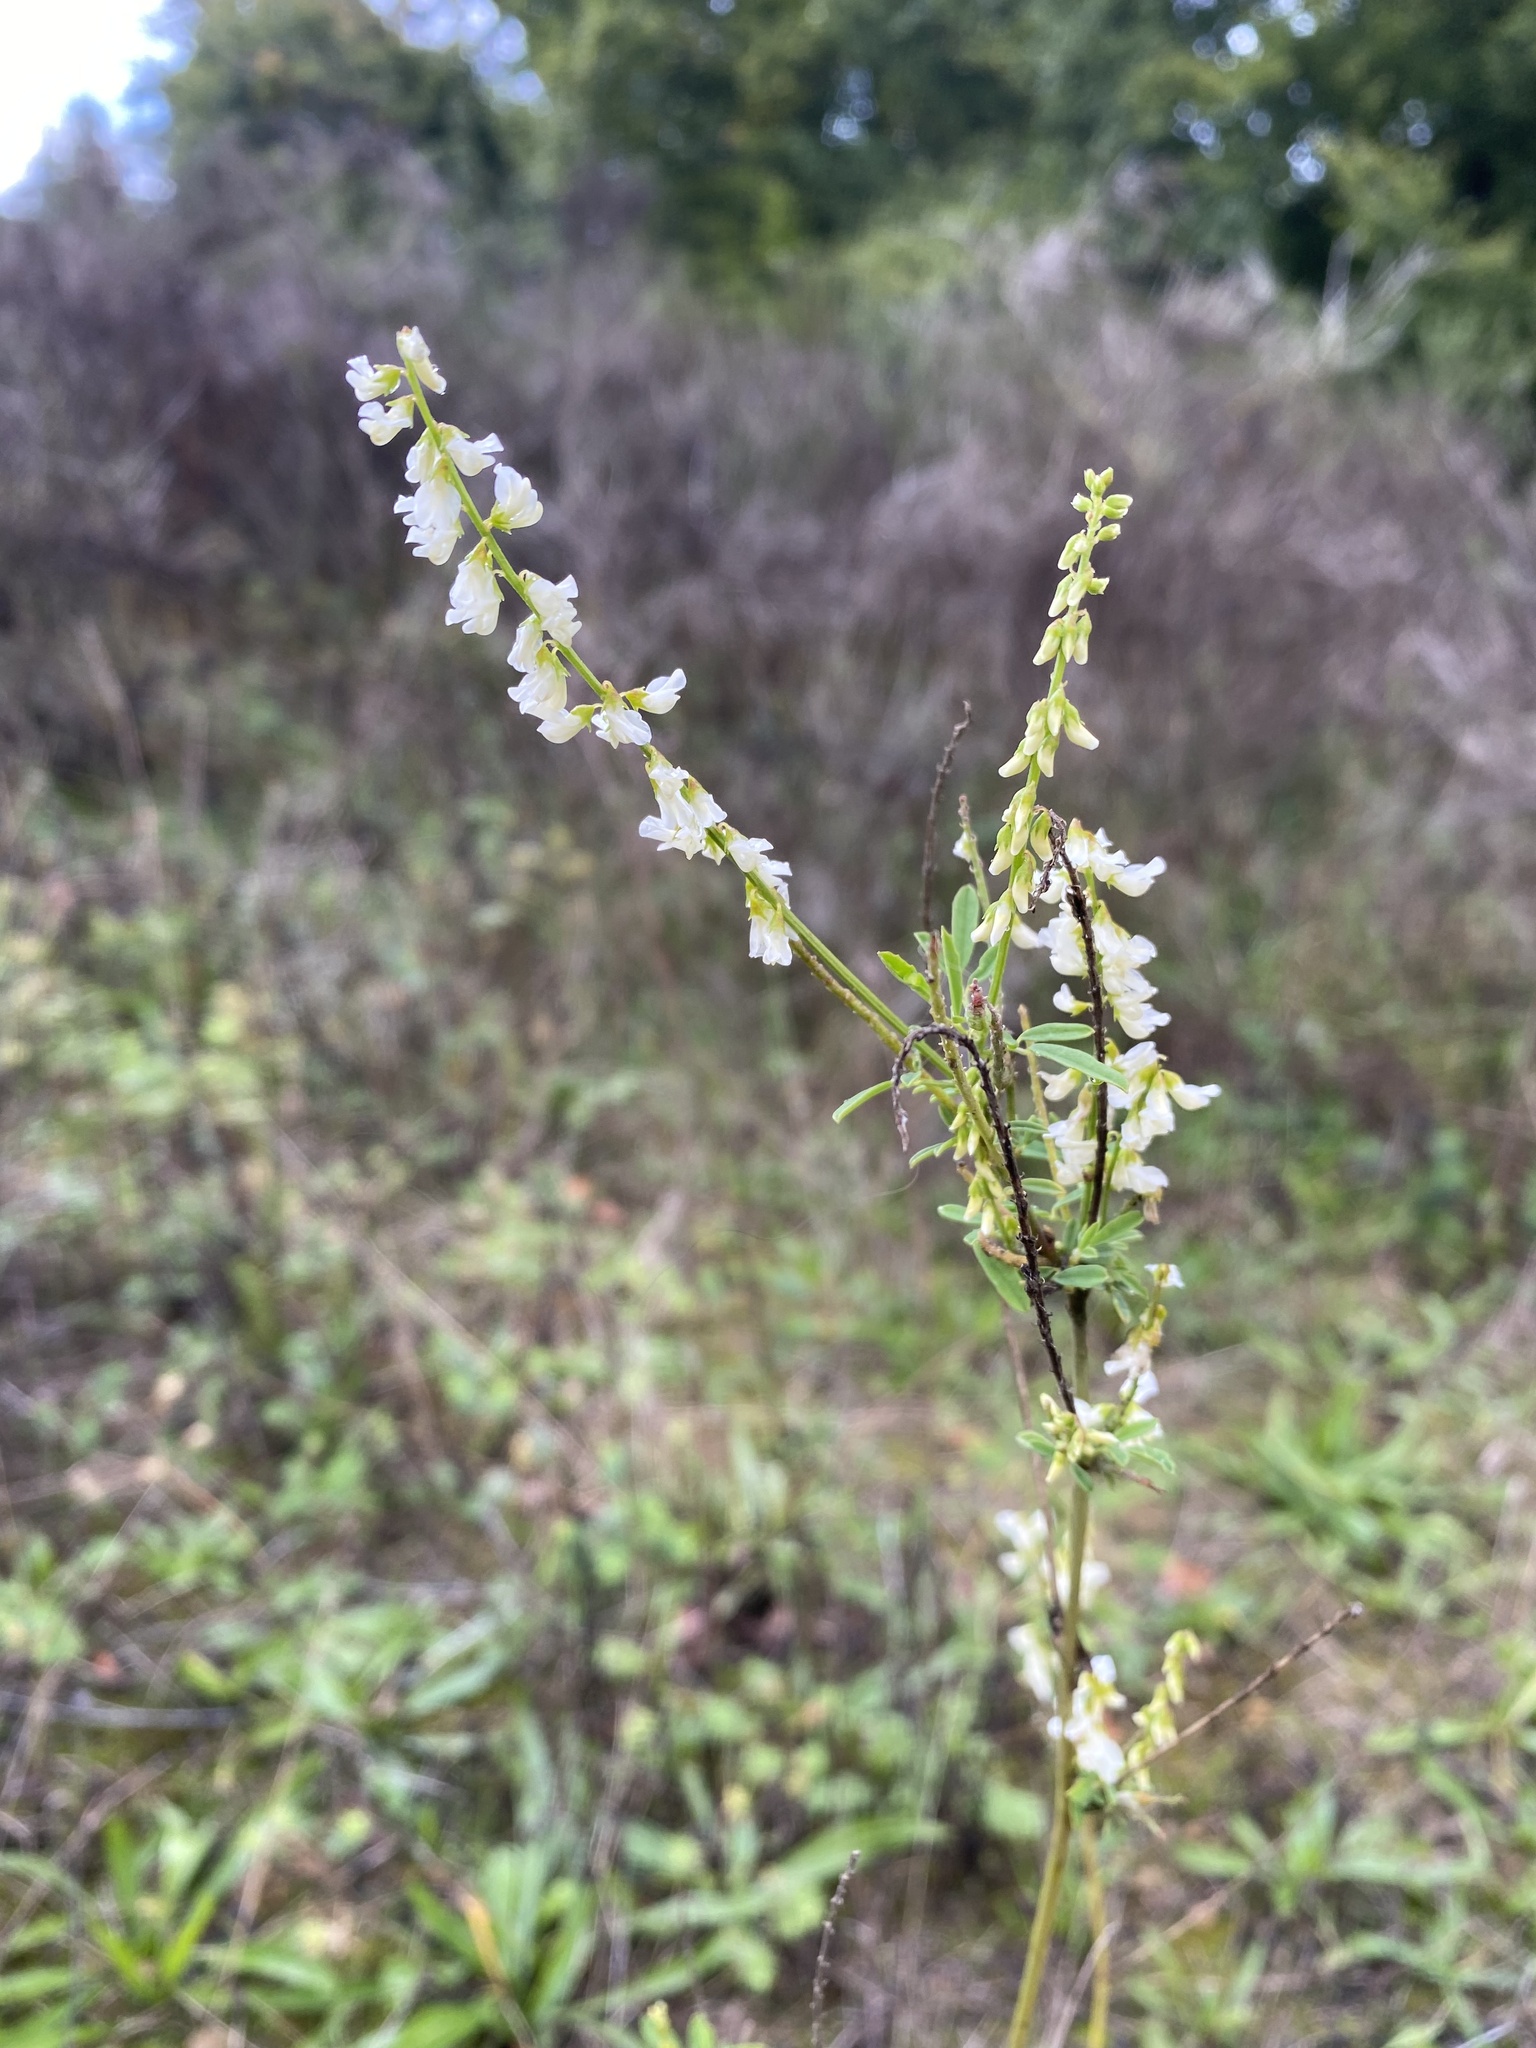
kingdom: Plantae
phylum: Tracheophyta
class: Magnoliopsida
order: Fabales
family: Fabaceae
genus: Melilotus
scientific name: Melilotus albus
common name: White melilot
